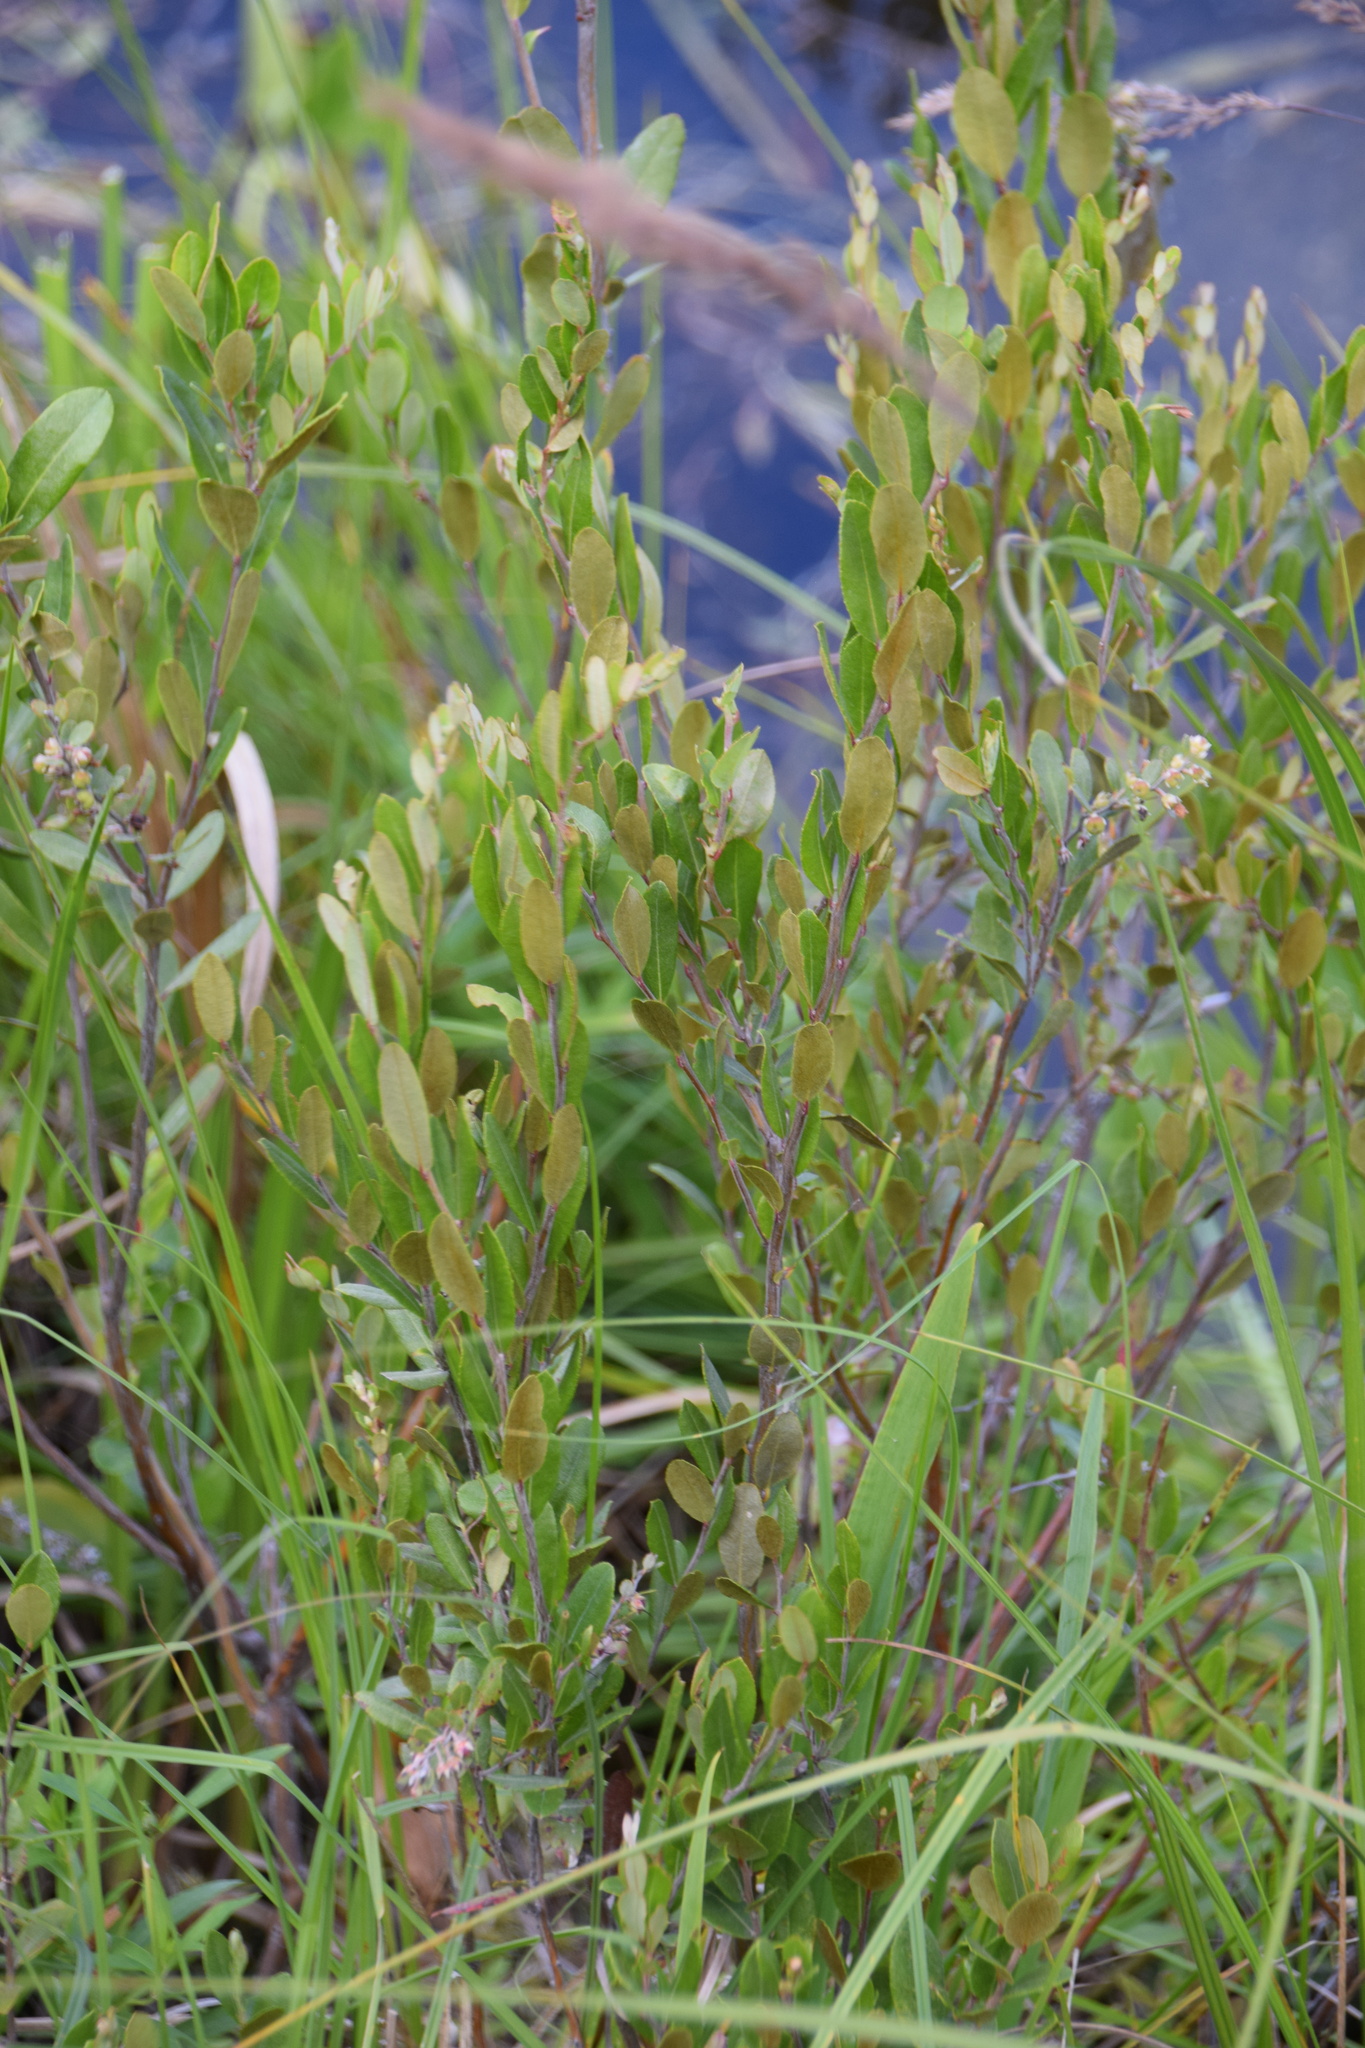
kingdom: Plantae
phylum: Tracheophyta
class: Magnoliopsida
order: Ericales
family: Ericaceae
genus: Chamaedaphne
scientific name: Chamaedaphne calyculata
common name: Leatherleaf
